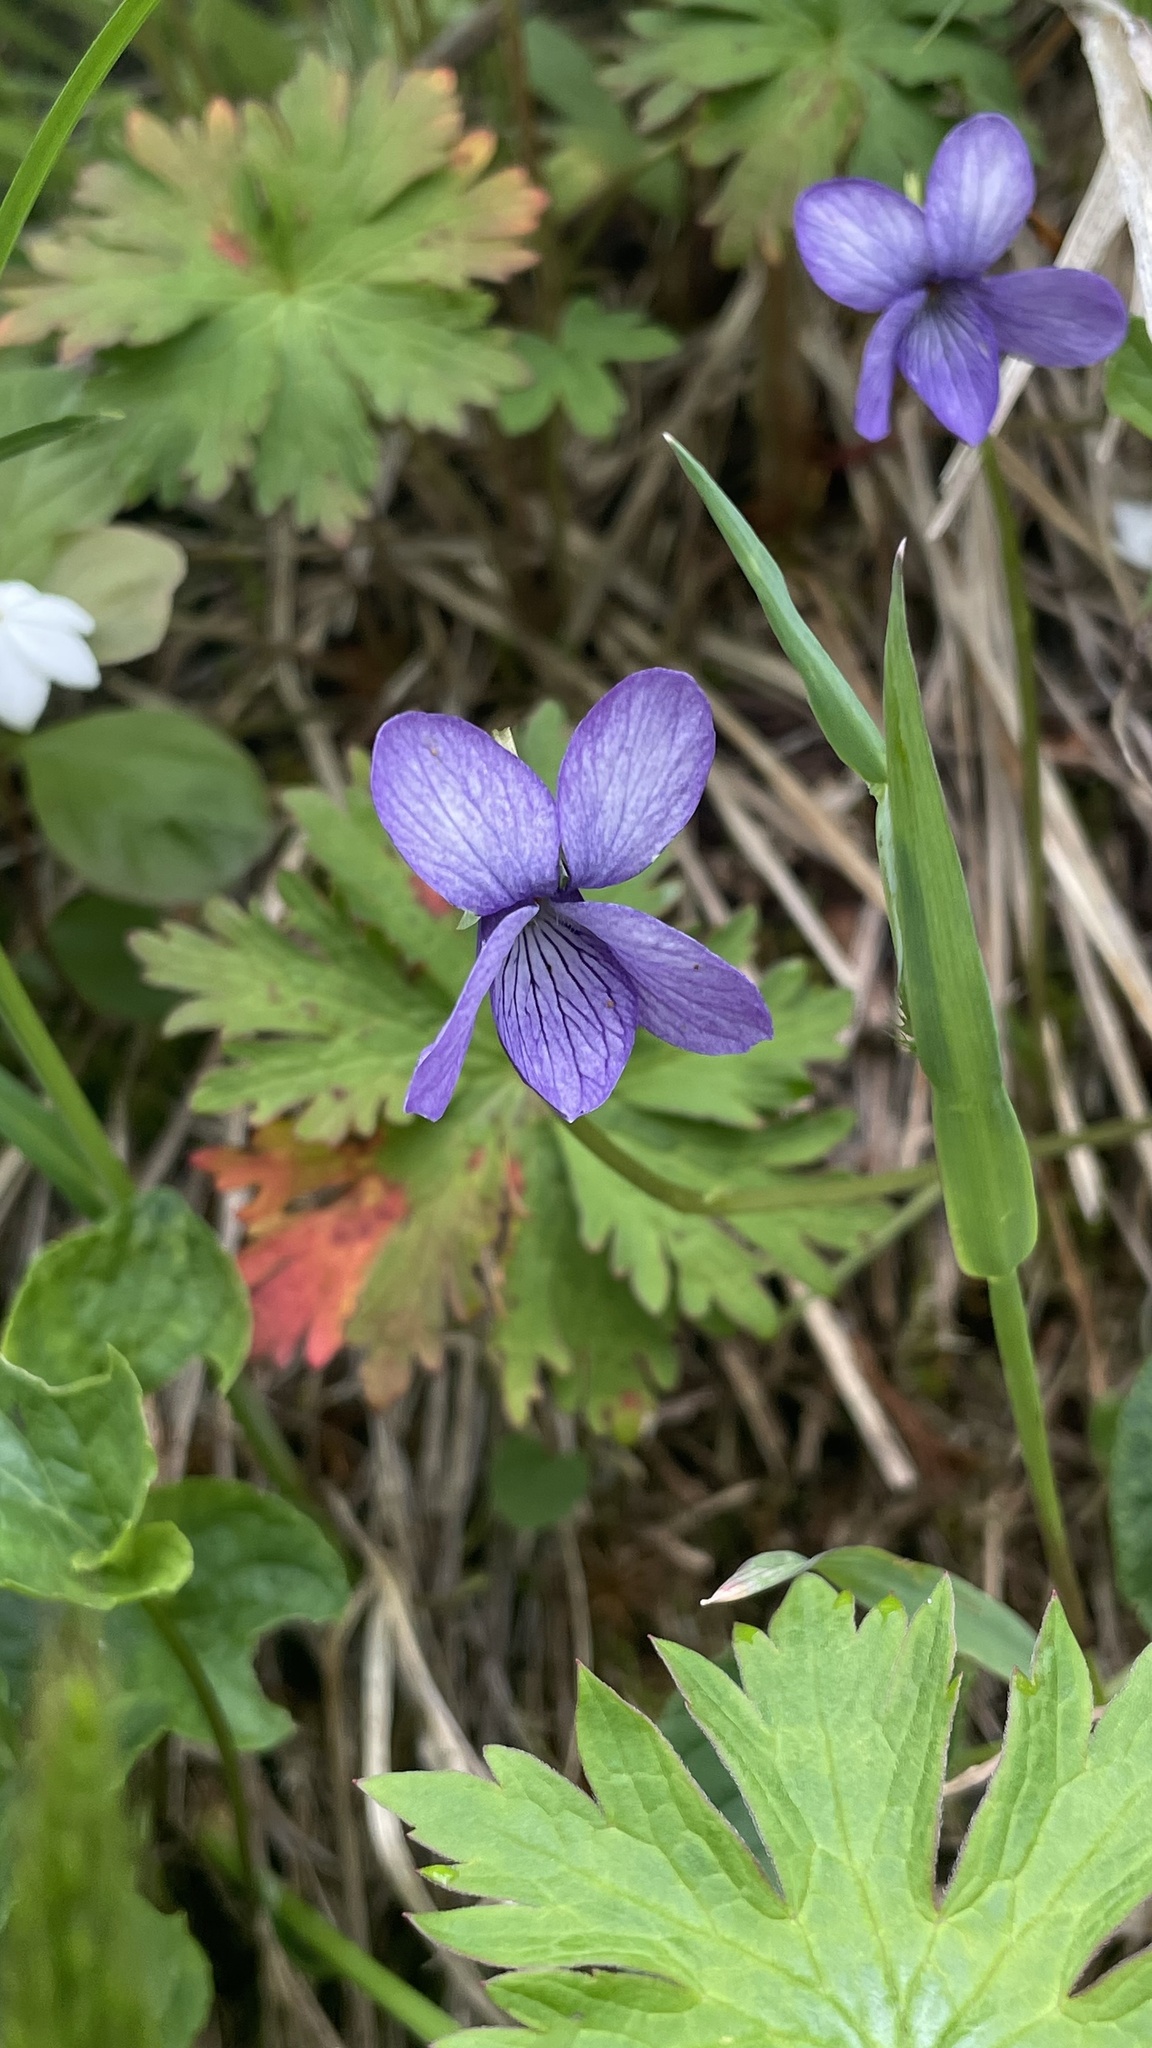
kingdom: Plantae
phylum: Tracheophyta
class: Magnoliopsida
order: Malpighiales
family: Violaceae
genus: Viola
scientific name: Viola langsdorffii
